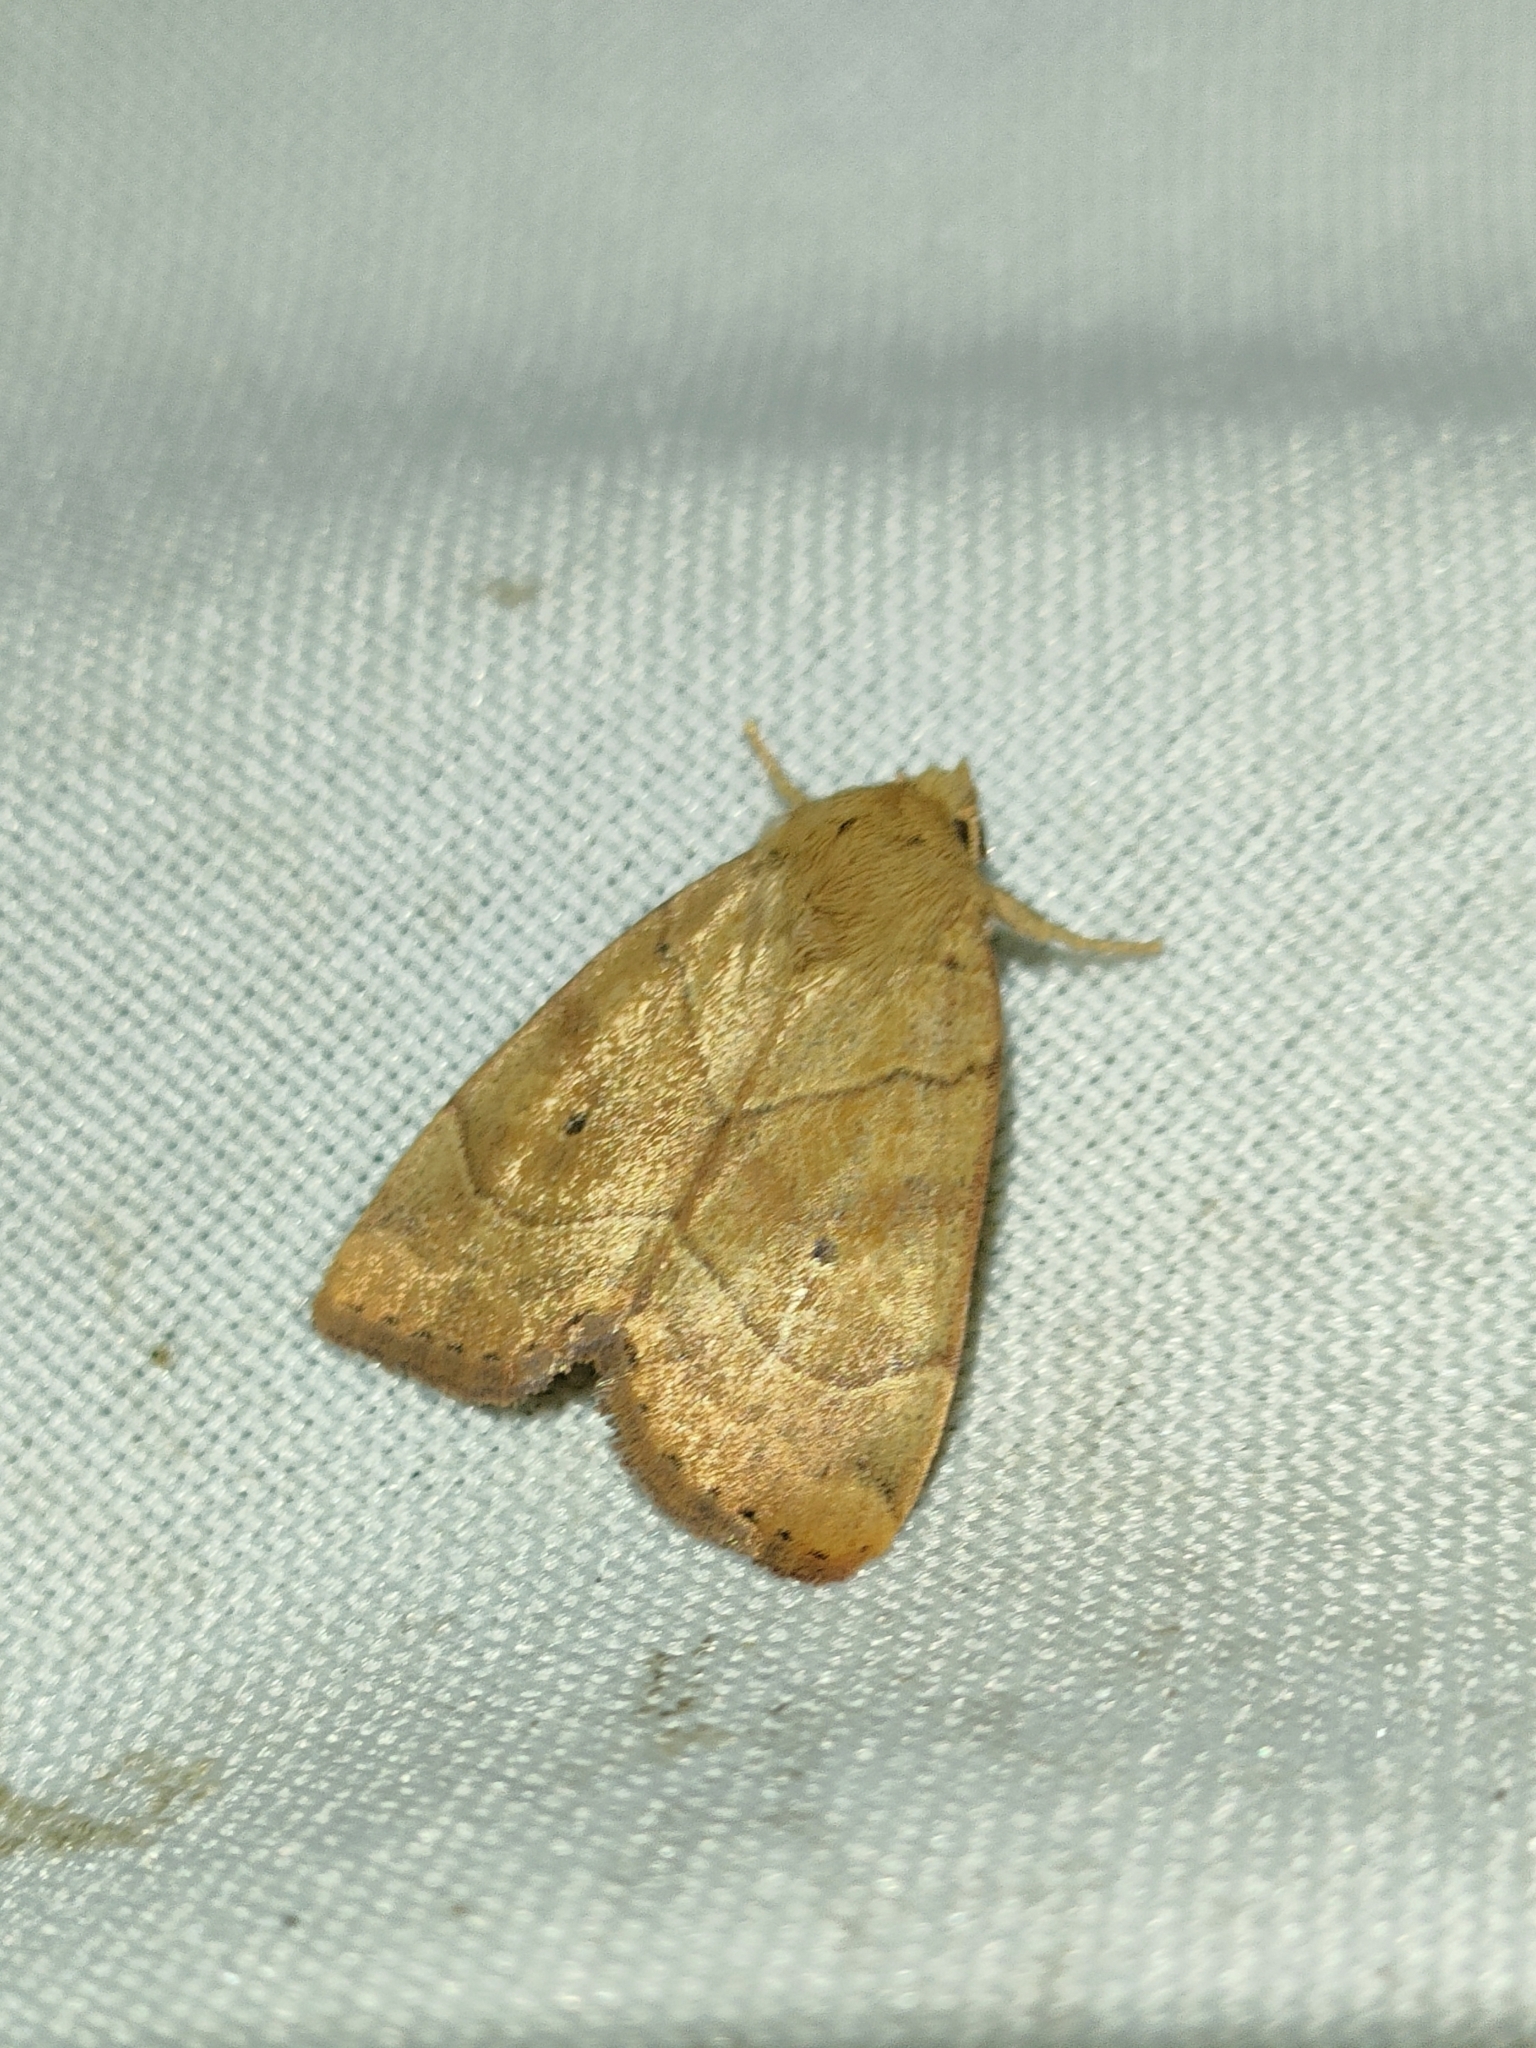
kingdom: Animalia
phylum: Arthropoda
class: Insecta
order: Lepidoptera
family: Noctuidae
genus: Cosmia
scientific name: Cosmia trapezina
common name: Dun-bar
